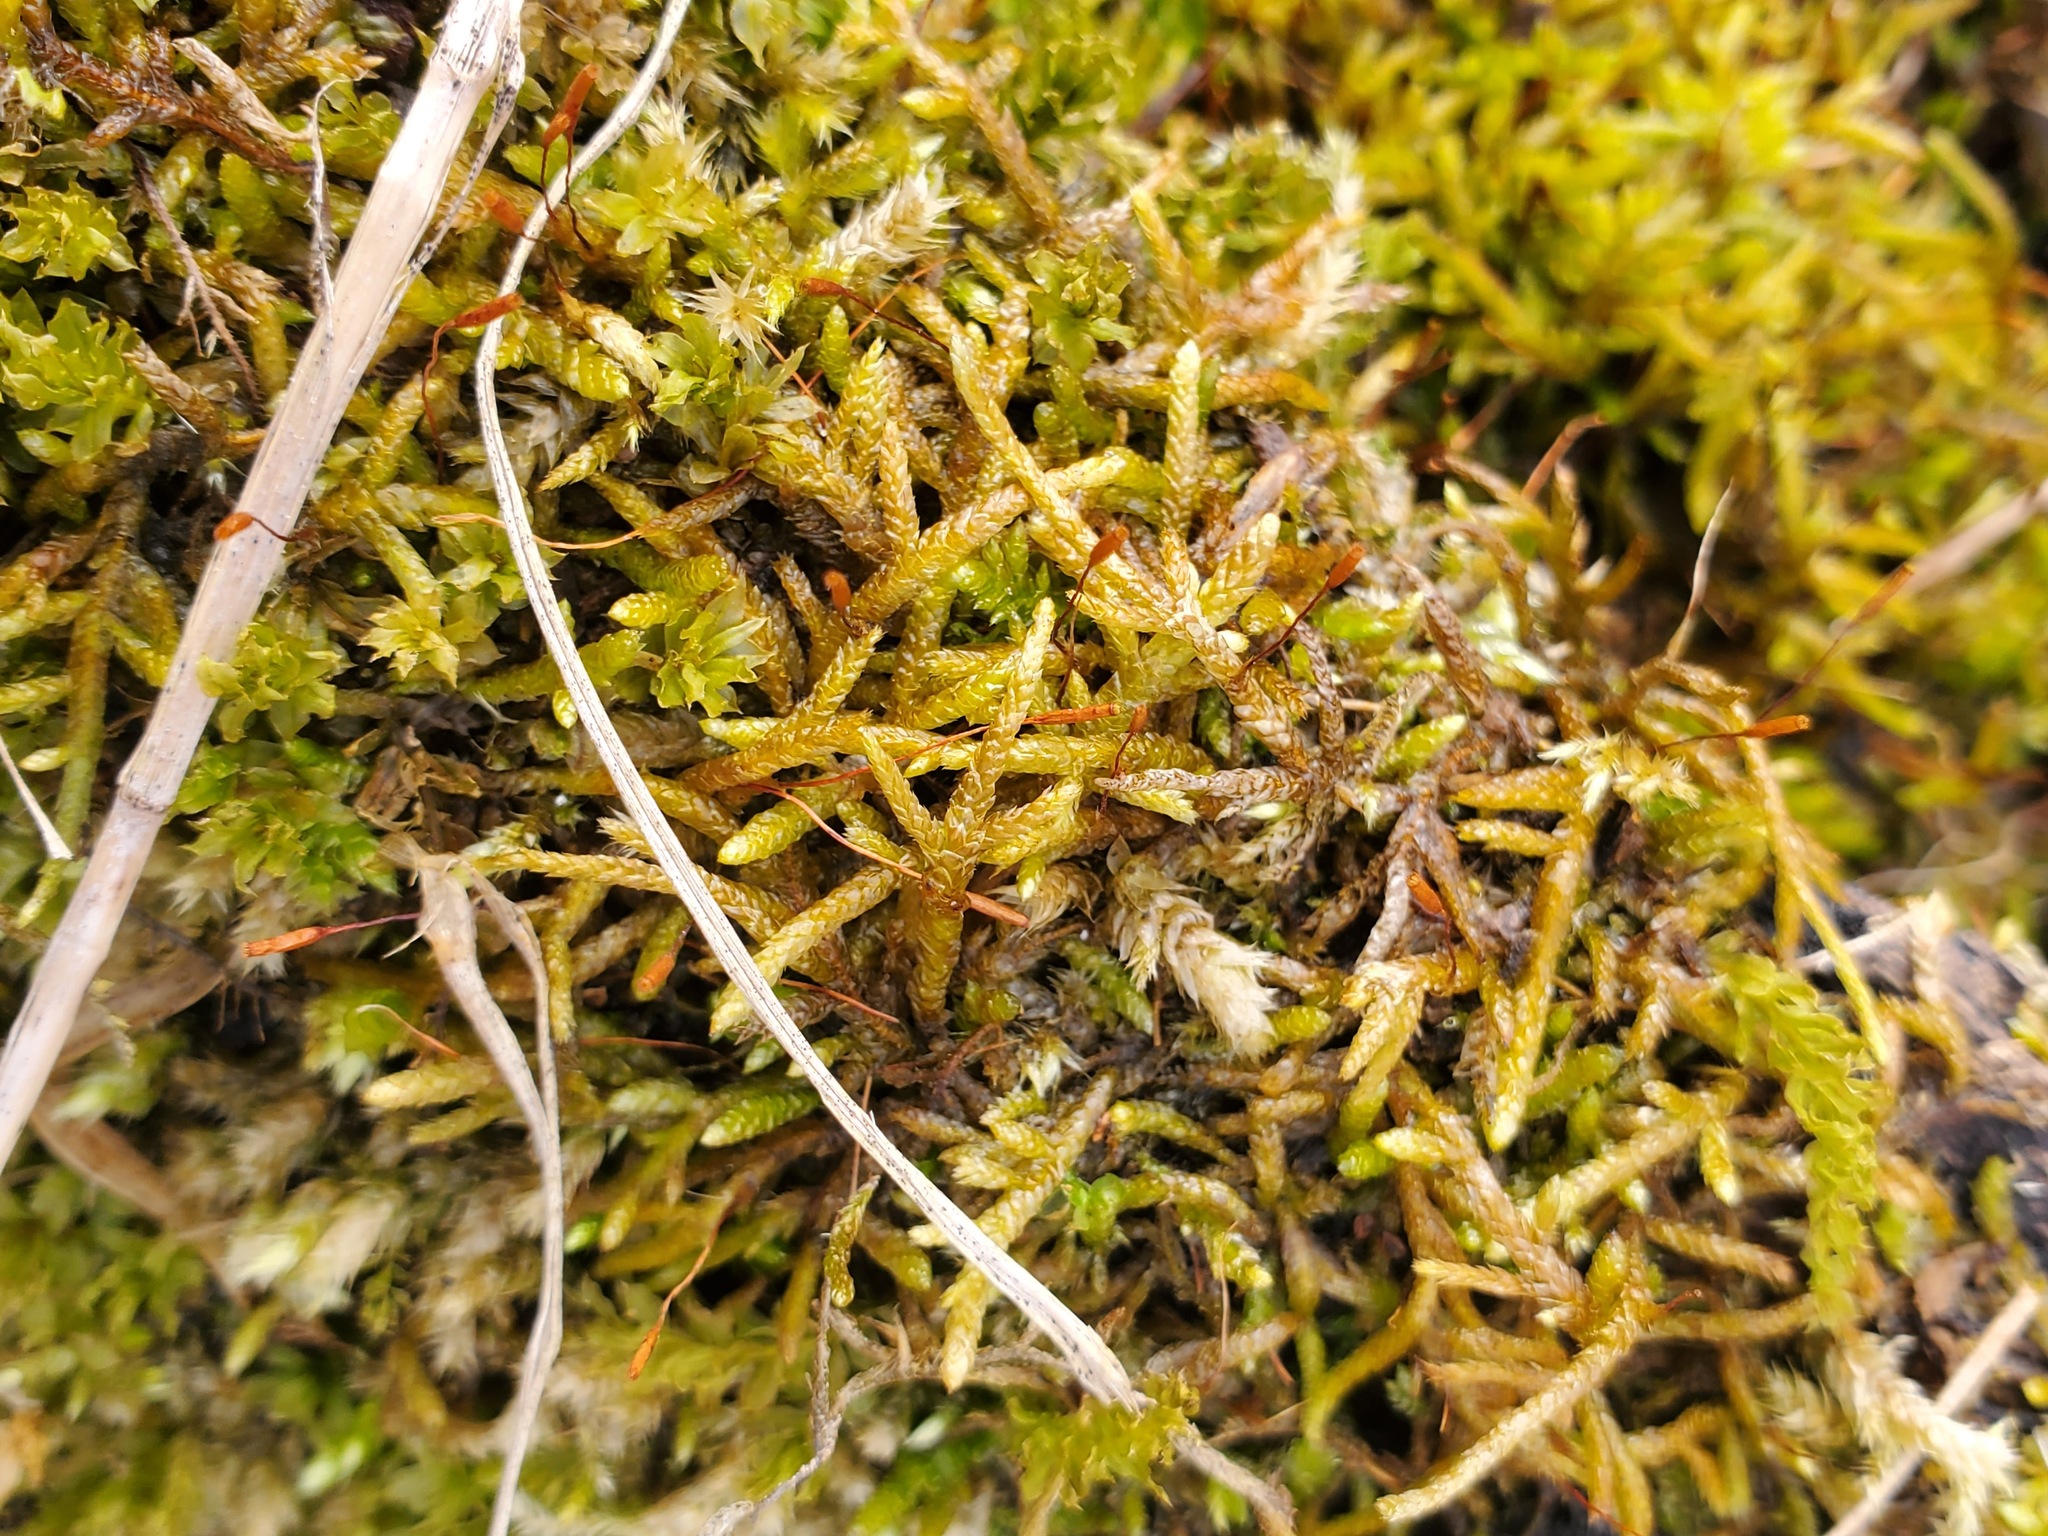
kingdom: Plantae
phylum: Bryophyta
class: Bryopsida
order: Hypnales
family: Entodontaceae
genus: Entodon
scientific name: Entodon seductrix
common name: Round-stemmed entodon moss
